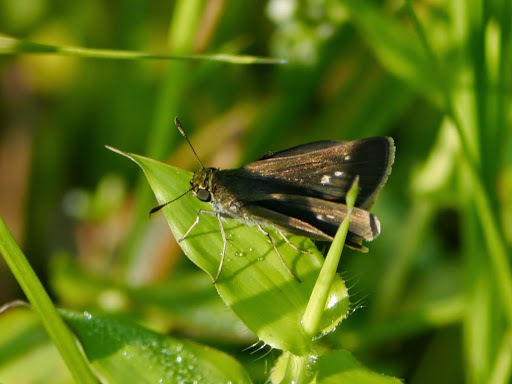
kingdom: Animalia
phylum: Arthropoda
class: Insecta
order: Lepidoptera
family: Hesperiidae
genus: Euphyes
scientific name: Euphyes vestris
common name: Dun skipper
